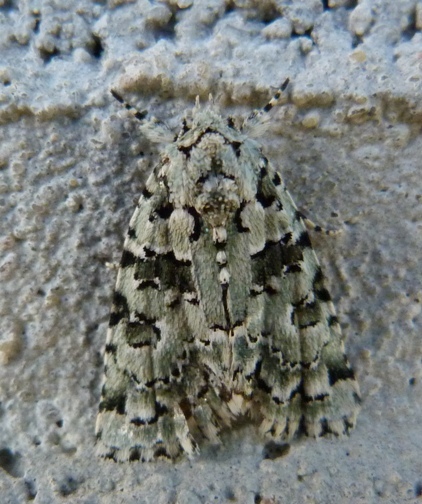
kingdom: Animalia
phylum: Arthropoda
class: Insecta
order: Lepidoptera
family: Noctuidae
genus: Nyctobrya
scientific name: Nyctobrya muralis
